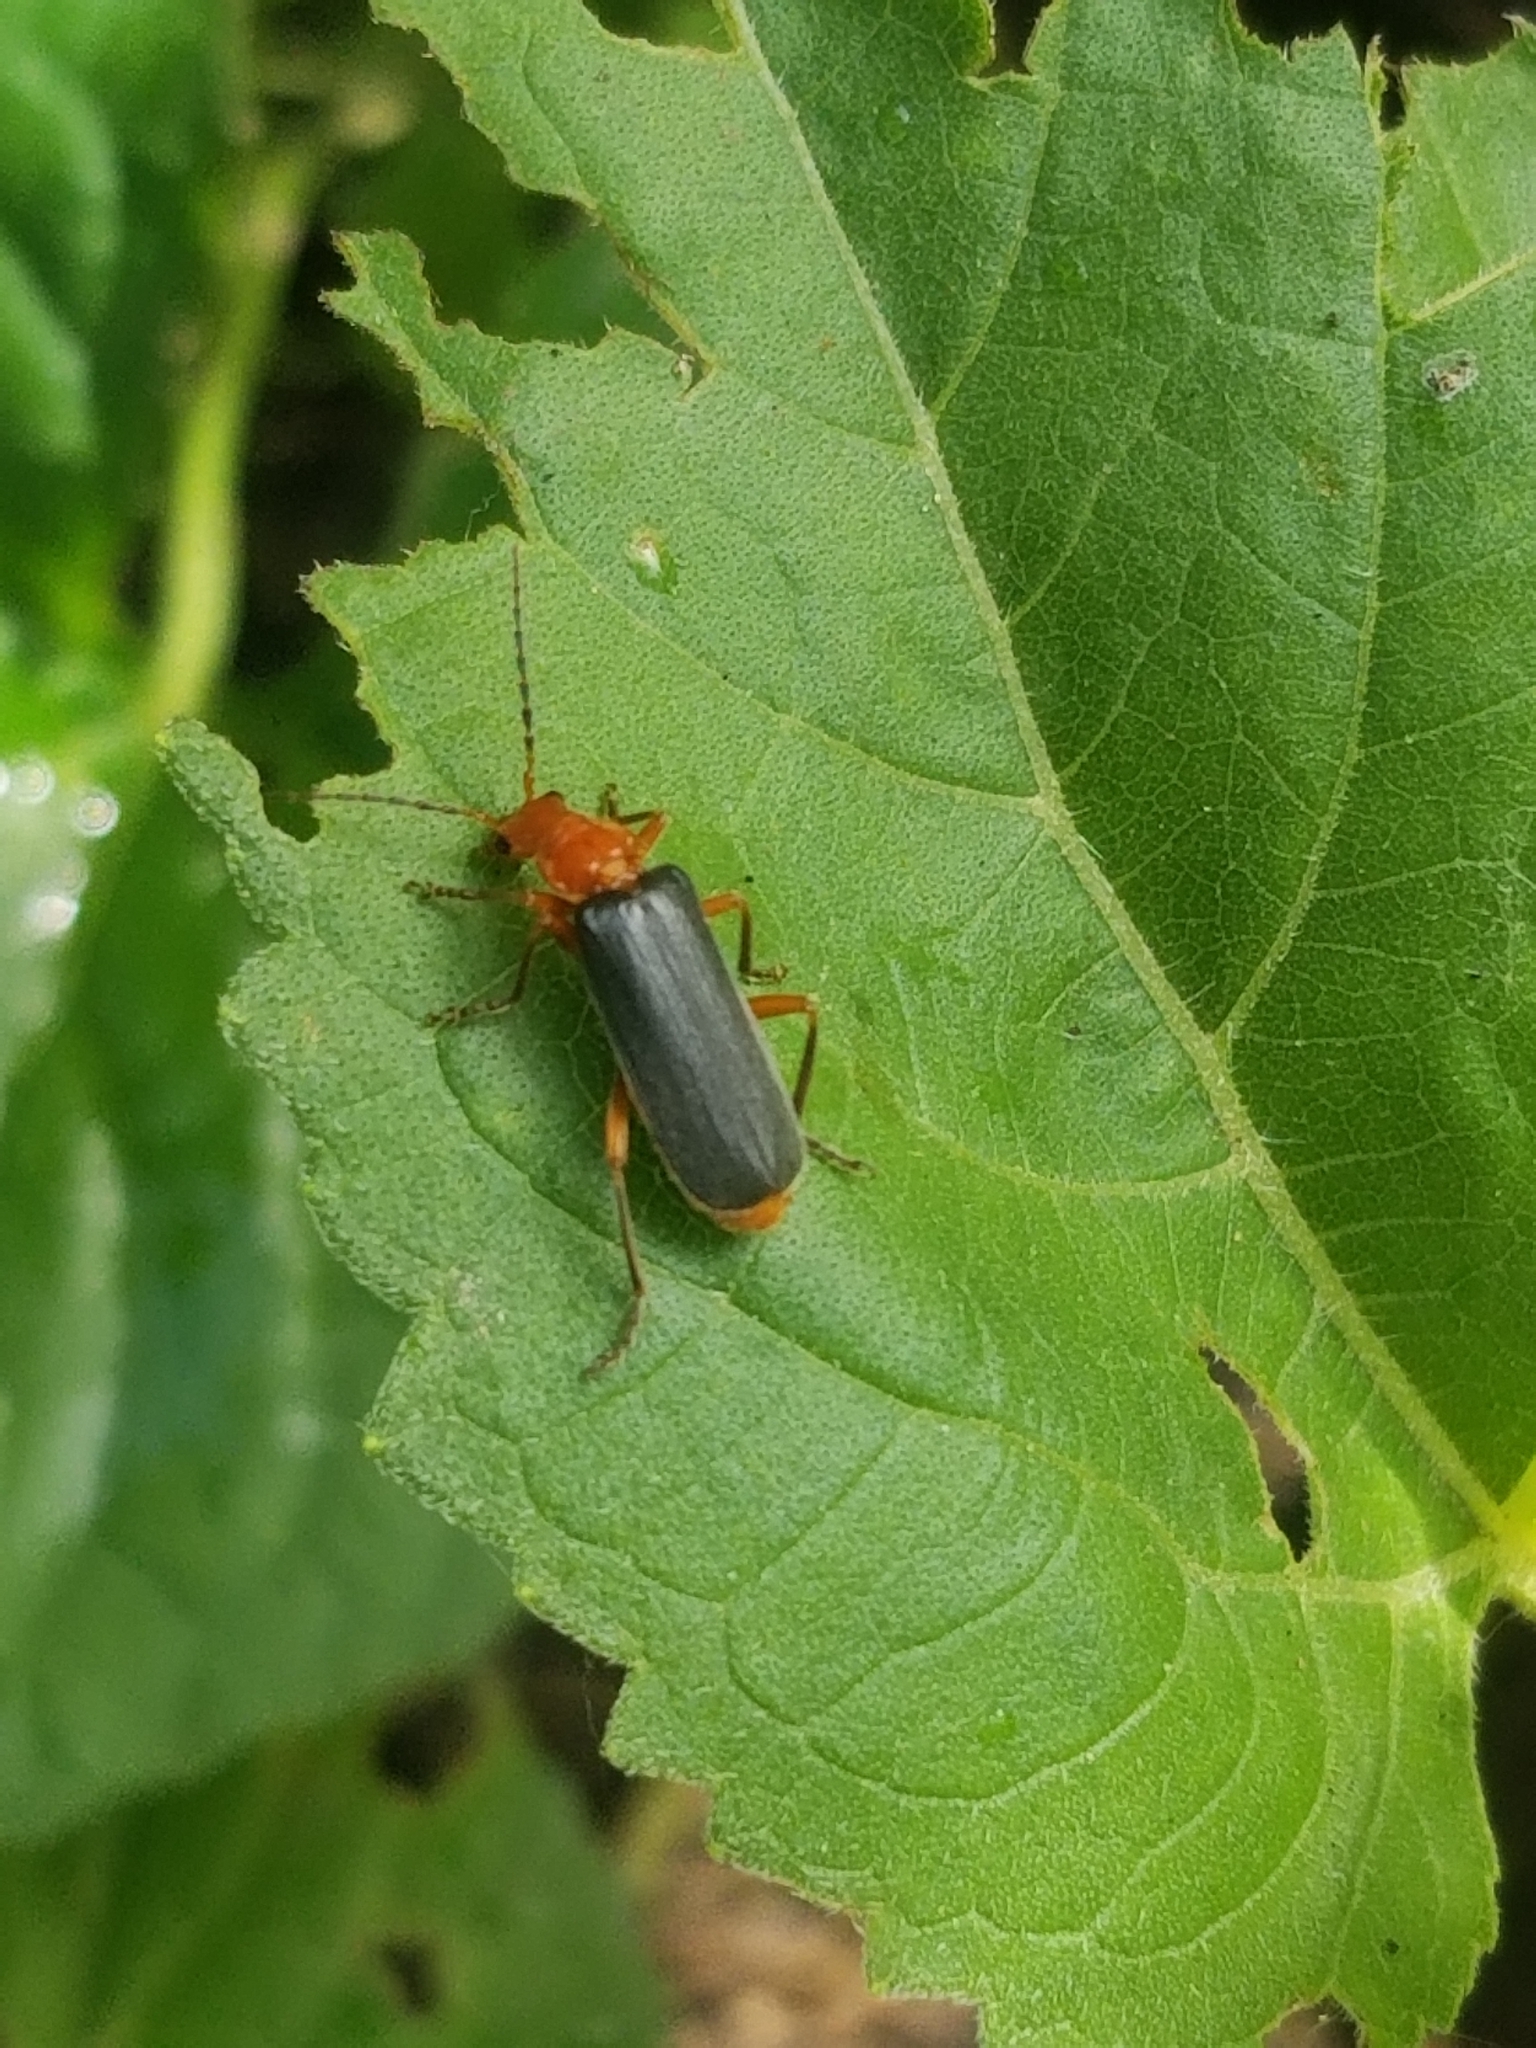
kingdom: Animalia
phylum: Arthropoda
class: Insecta
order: Coleoptera
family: Cantharidae
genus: Podabrus
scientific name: Podabrus tomentosus
